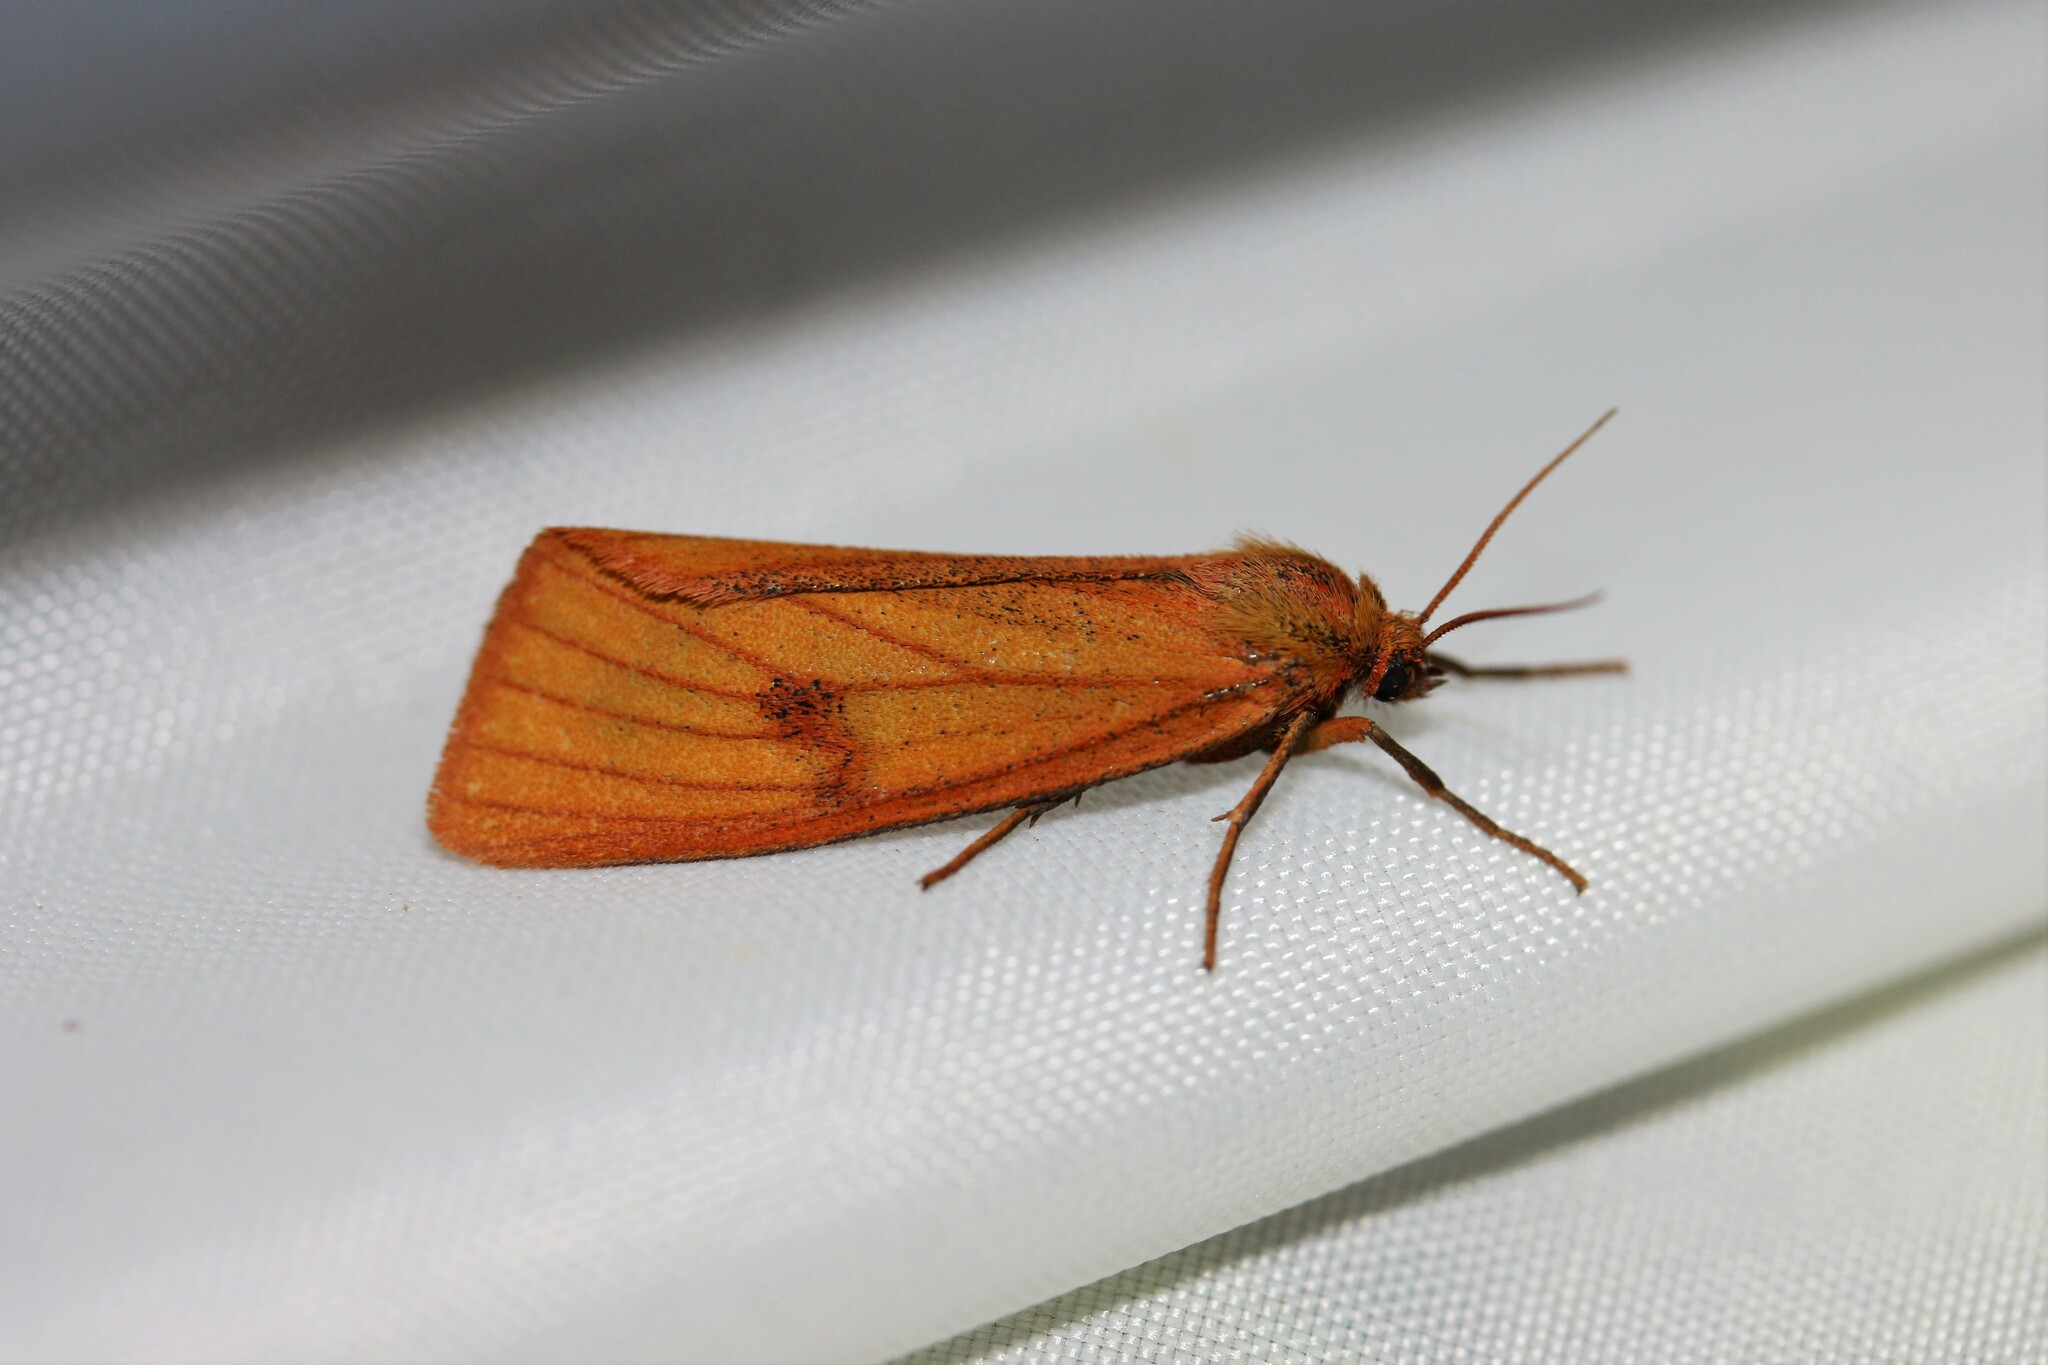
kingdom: Animalia
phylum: Arthropoda
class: Insecta
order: Lepidoptera
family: Erebidae
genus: Diacrisia
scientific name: Diacrisia sannio
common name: Clouded buff
